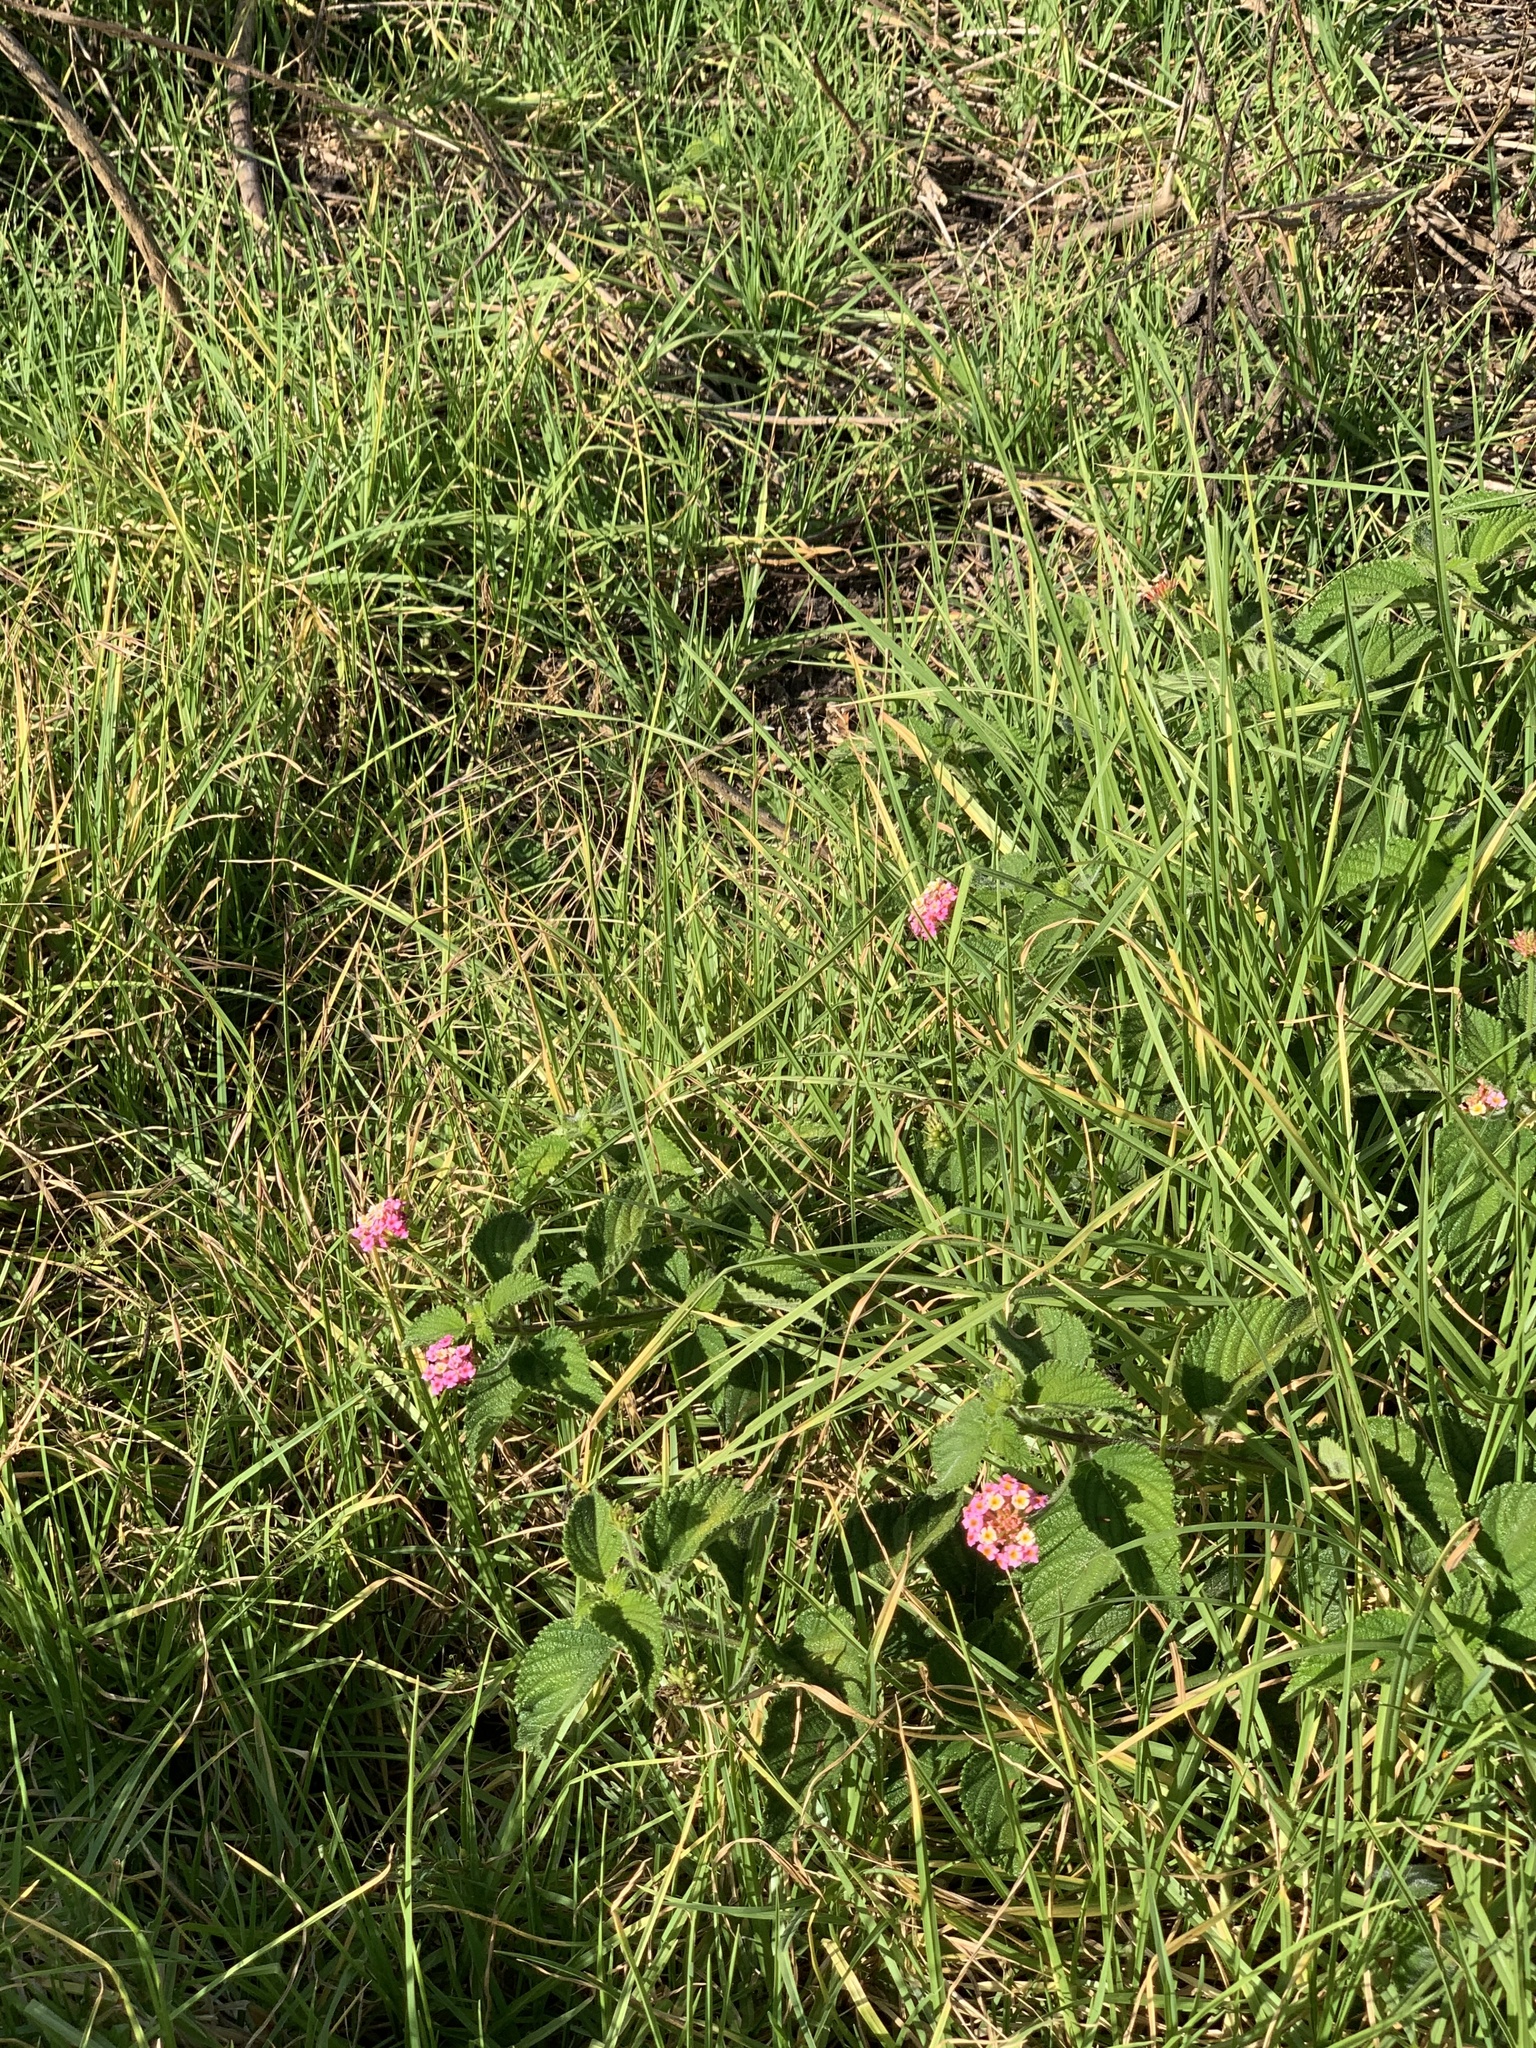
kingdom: Plantae
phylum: Tracheophyta
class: Magnoliopsida
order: Lamiales
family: Verbenaceae
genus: Lantana
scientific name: Lantana camara
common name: Lantana
